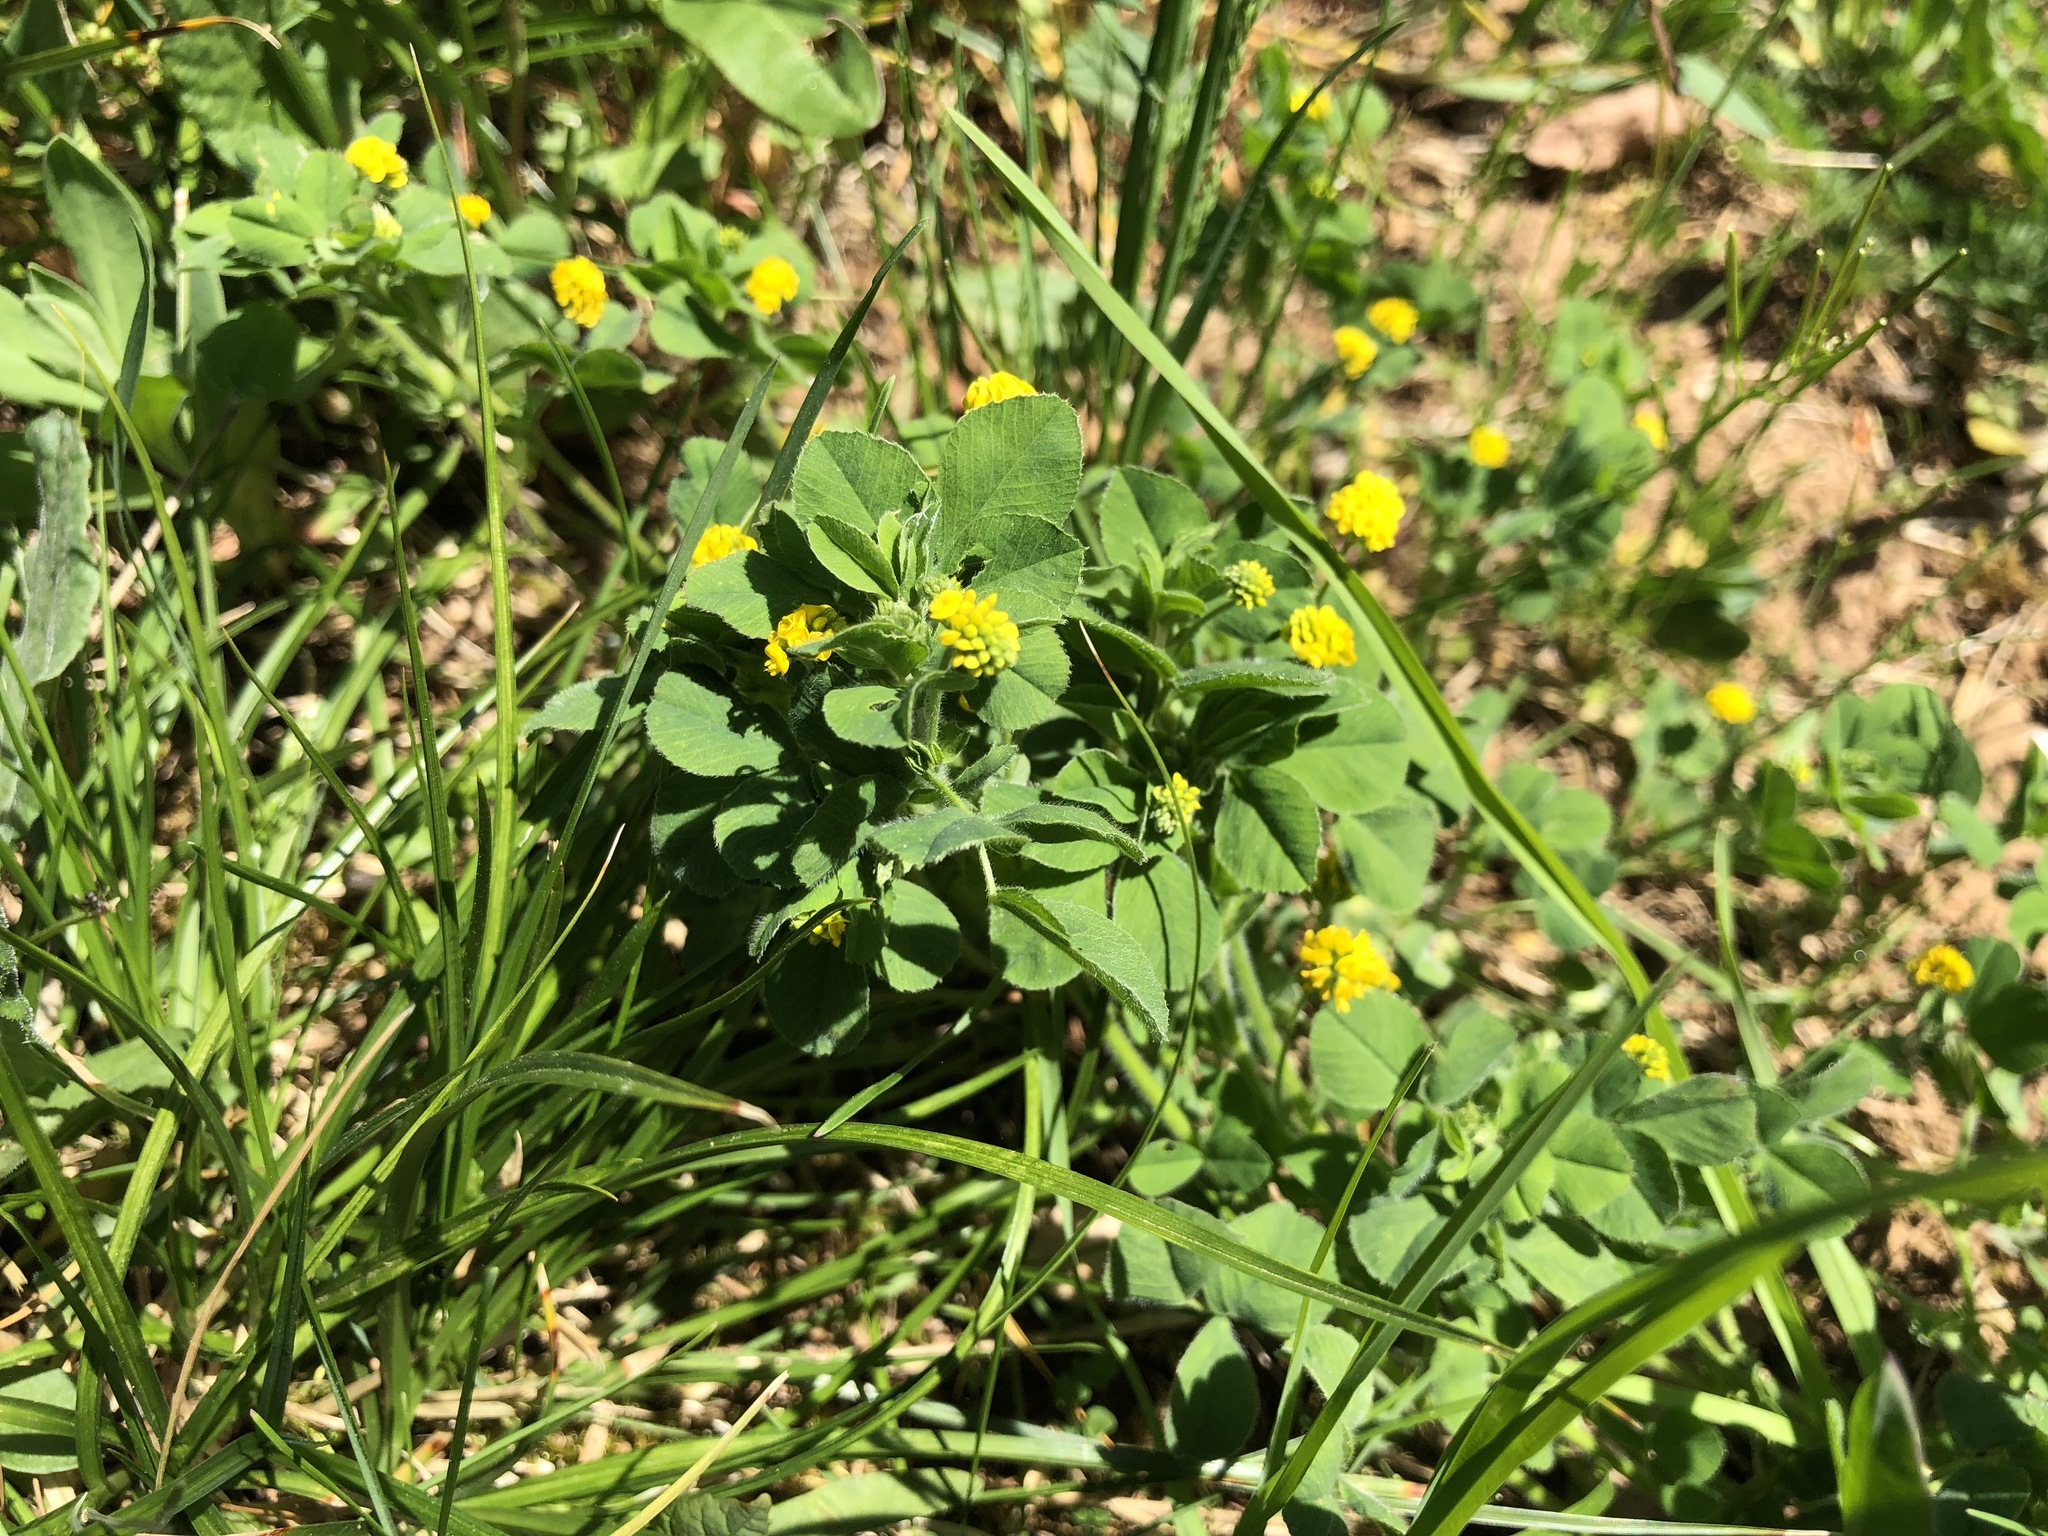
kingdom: Plantae
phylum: Tracheophyta
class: Magnoliopsida
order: Fabales
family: Fabaceae
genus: Medicago
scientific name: Medicago lupulina
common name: Black medick
